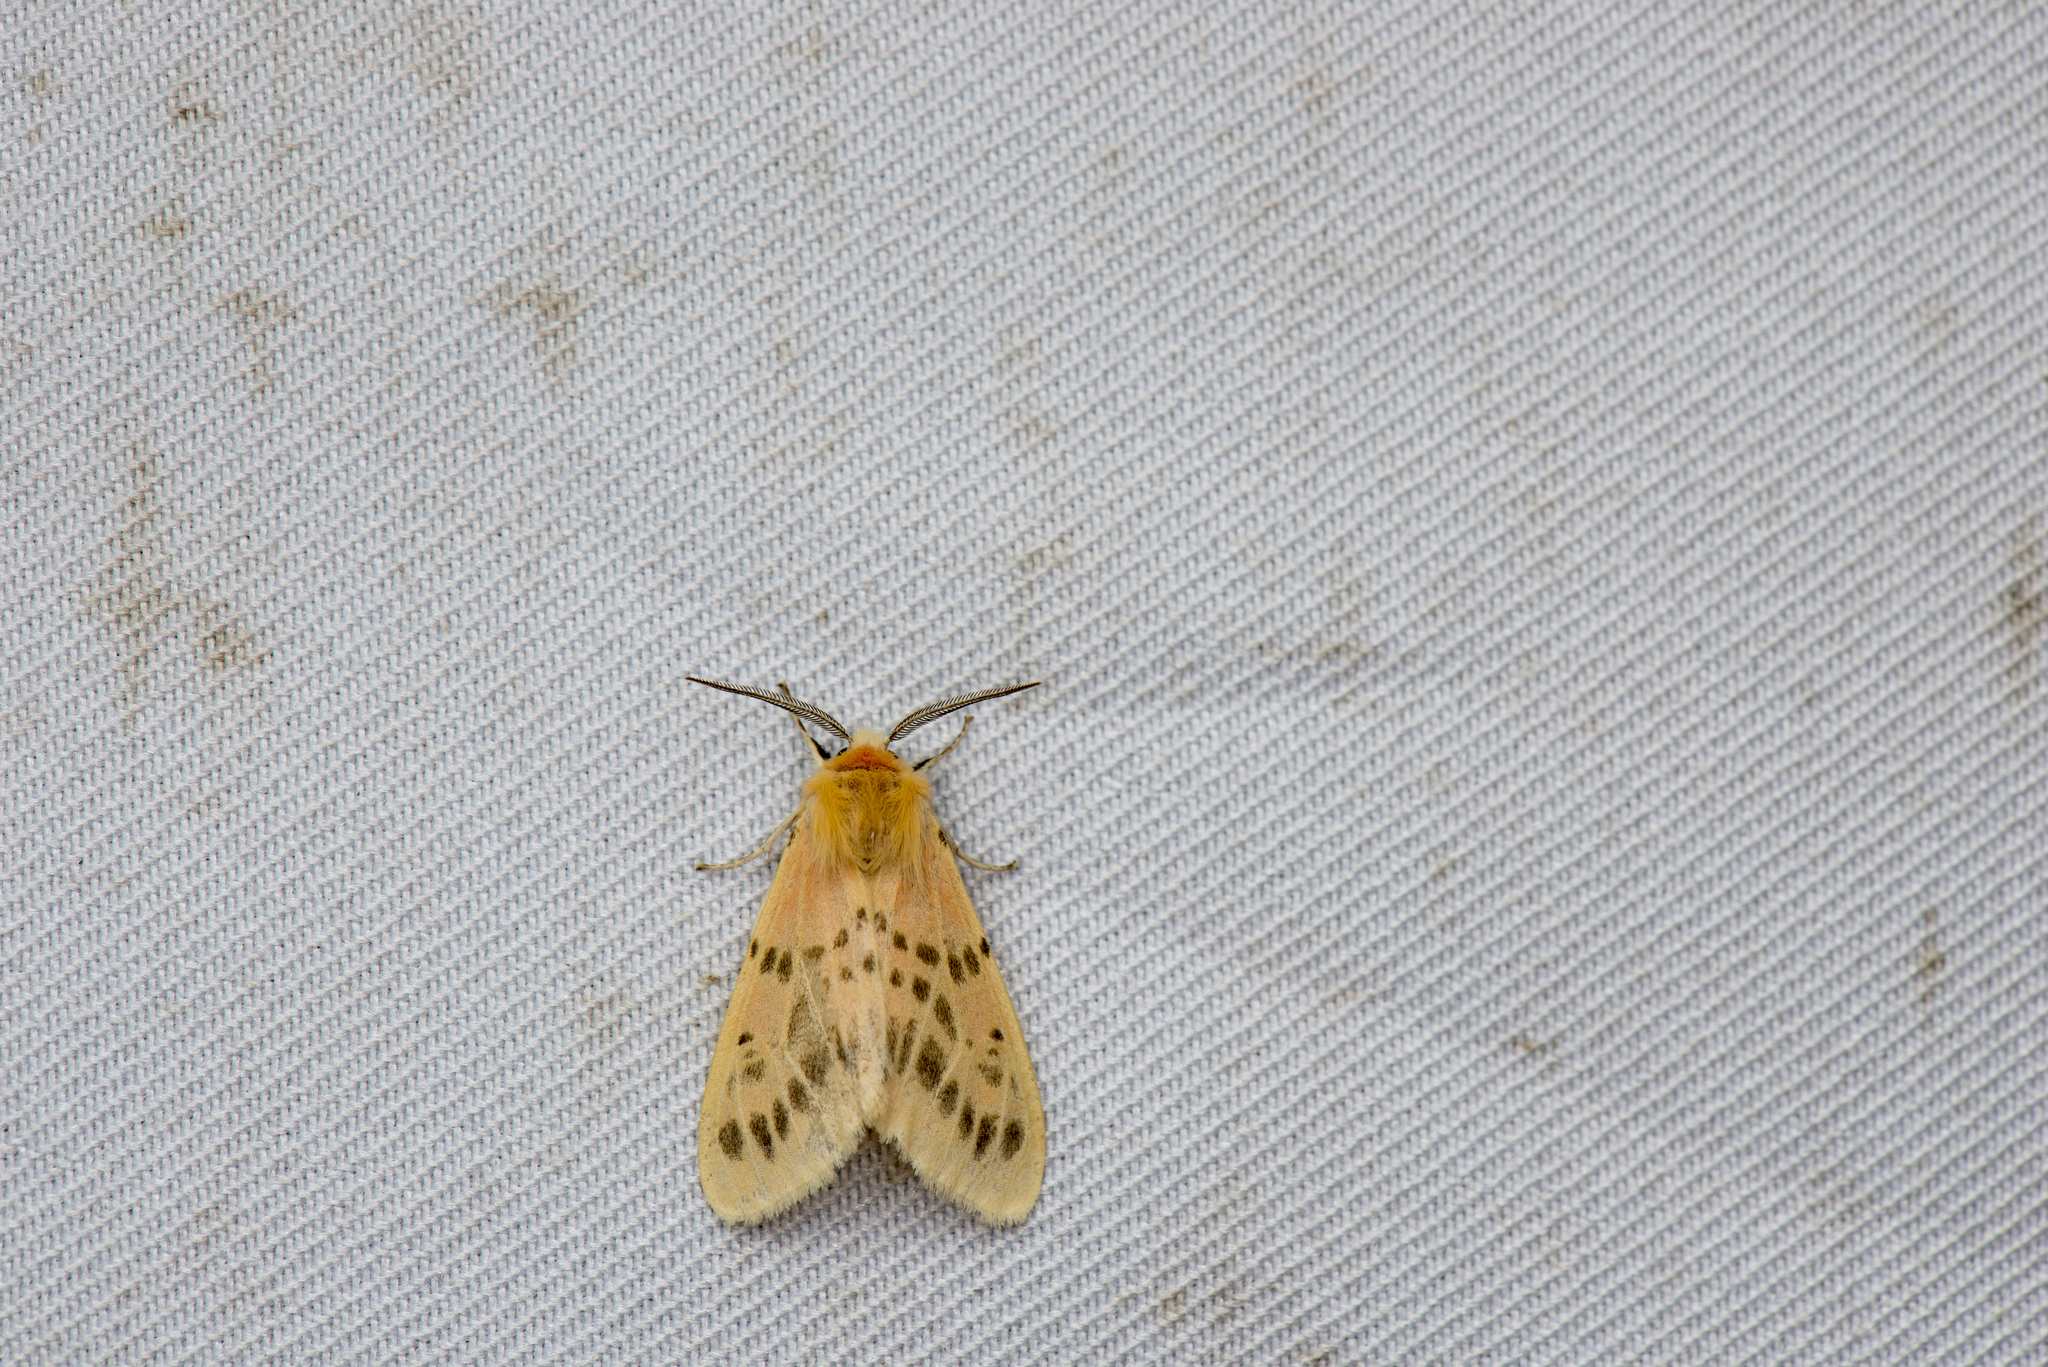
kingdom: Animalia
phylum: Arthropoda
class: Insecta
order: Lepidoptera
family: Erebidae
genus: Spilosoma
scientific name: Spilosoma moltrechti
